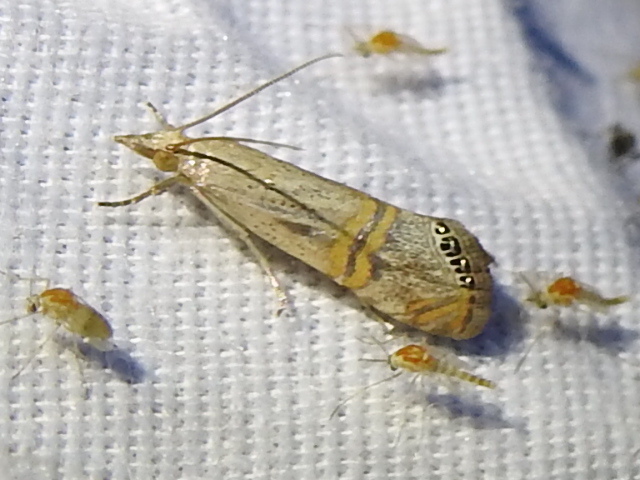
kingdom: Animalia
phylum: Arthropoda
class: Insecta
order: Lepidoptera
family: Crambidae
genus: Euchromius
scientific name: Euchromius ocellea
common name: Necklace veneer moth
